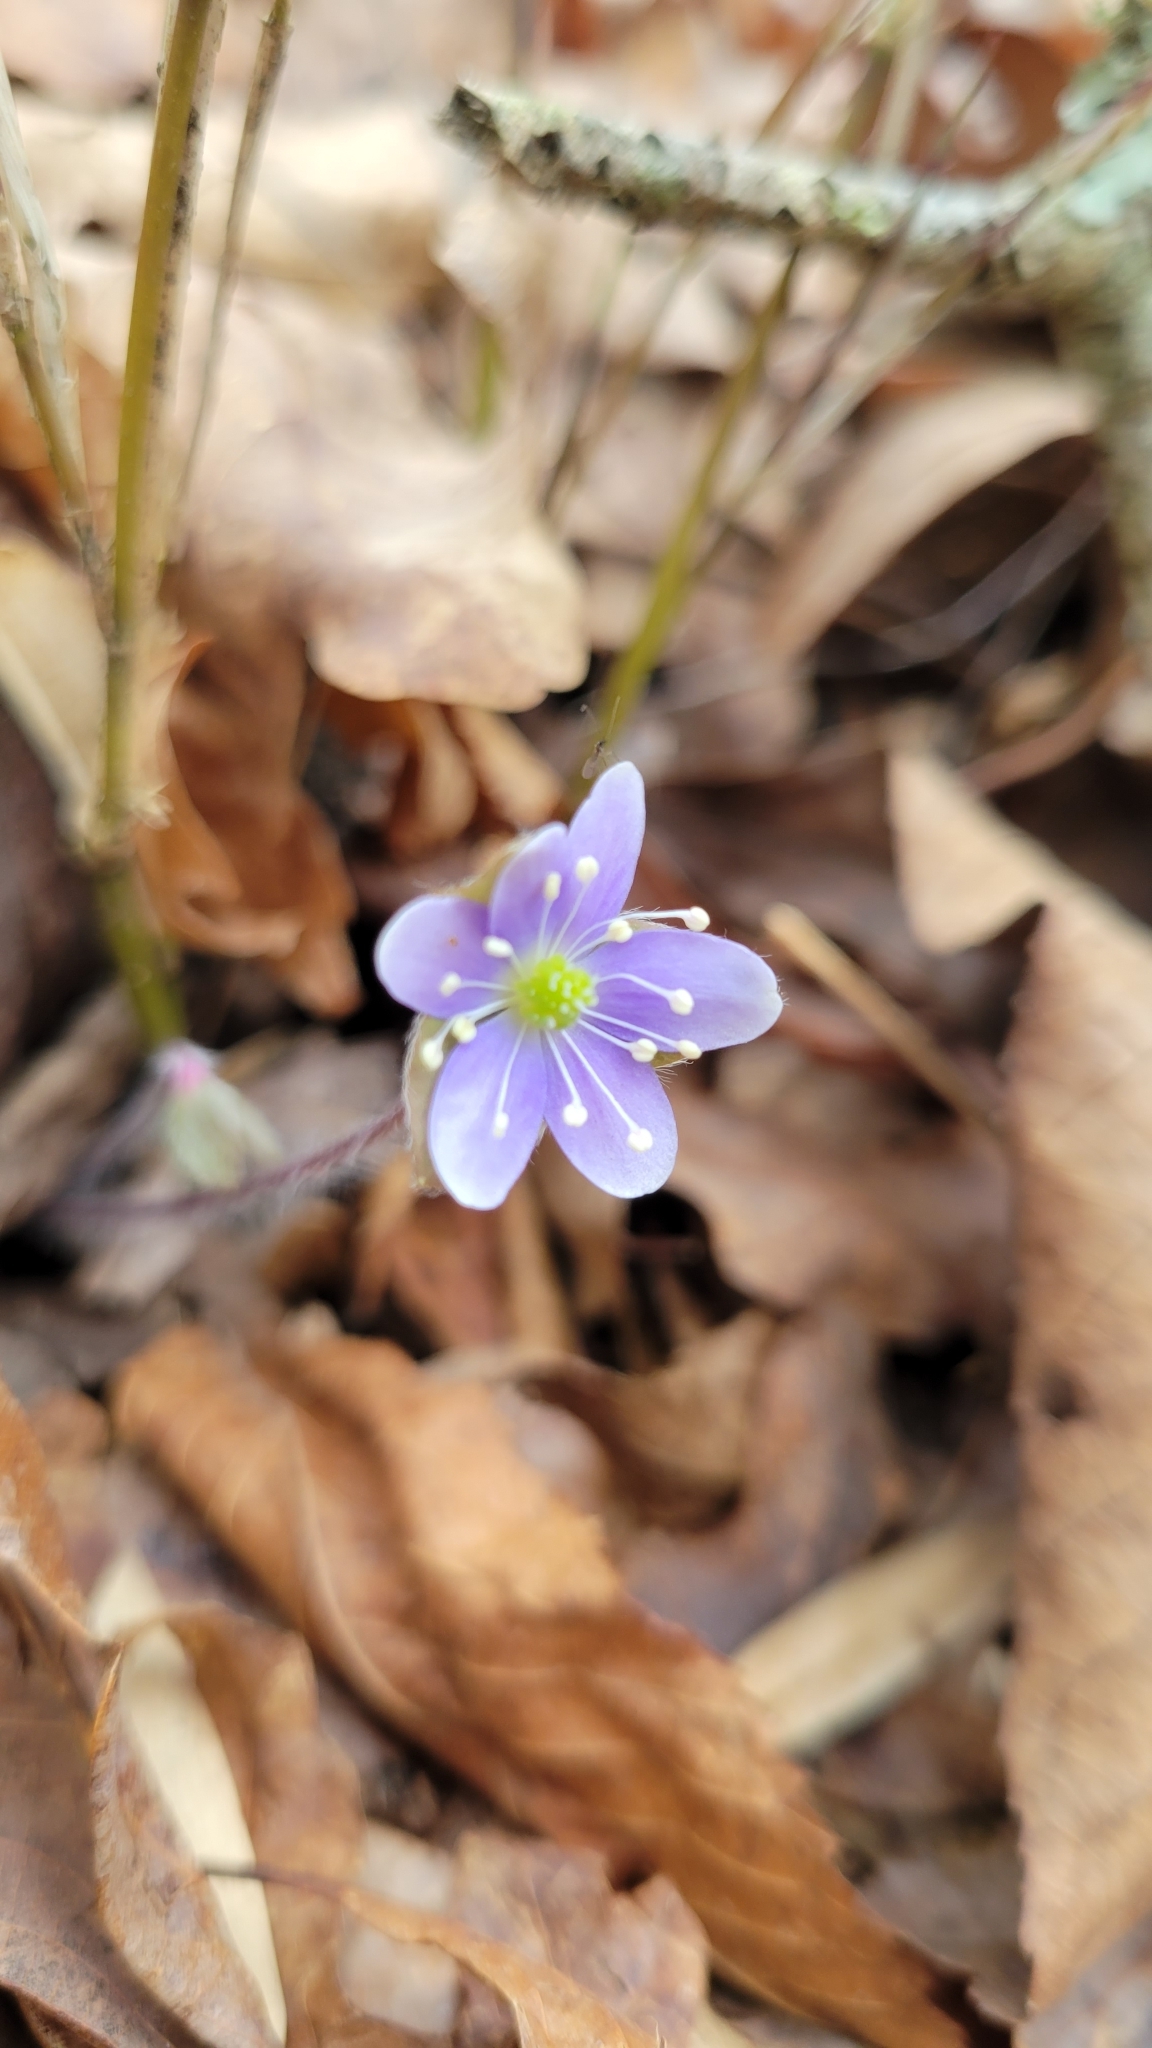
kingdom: Plantae
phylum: Tracheophyta
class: Magnoliopsida
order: Ranunculales
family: Ranunculaceae
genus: Hepatica
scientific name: Hepatica americana
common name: American hepatica
